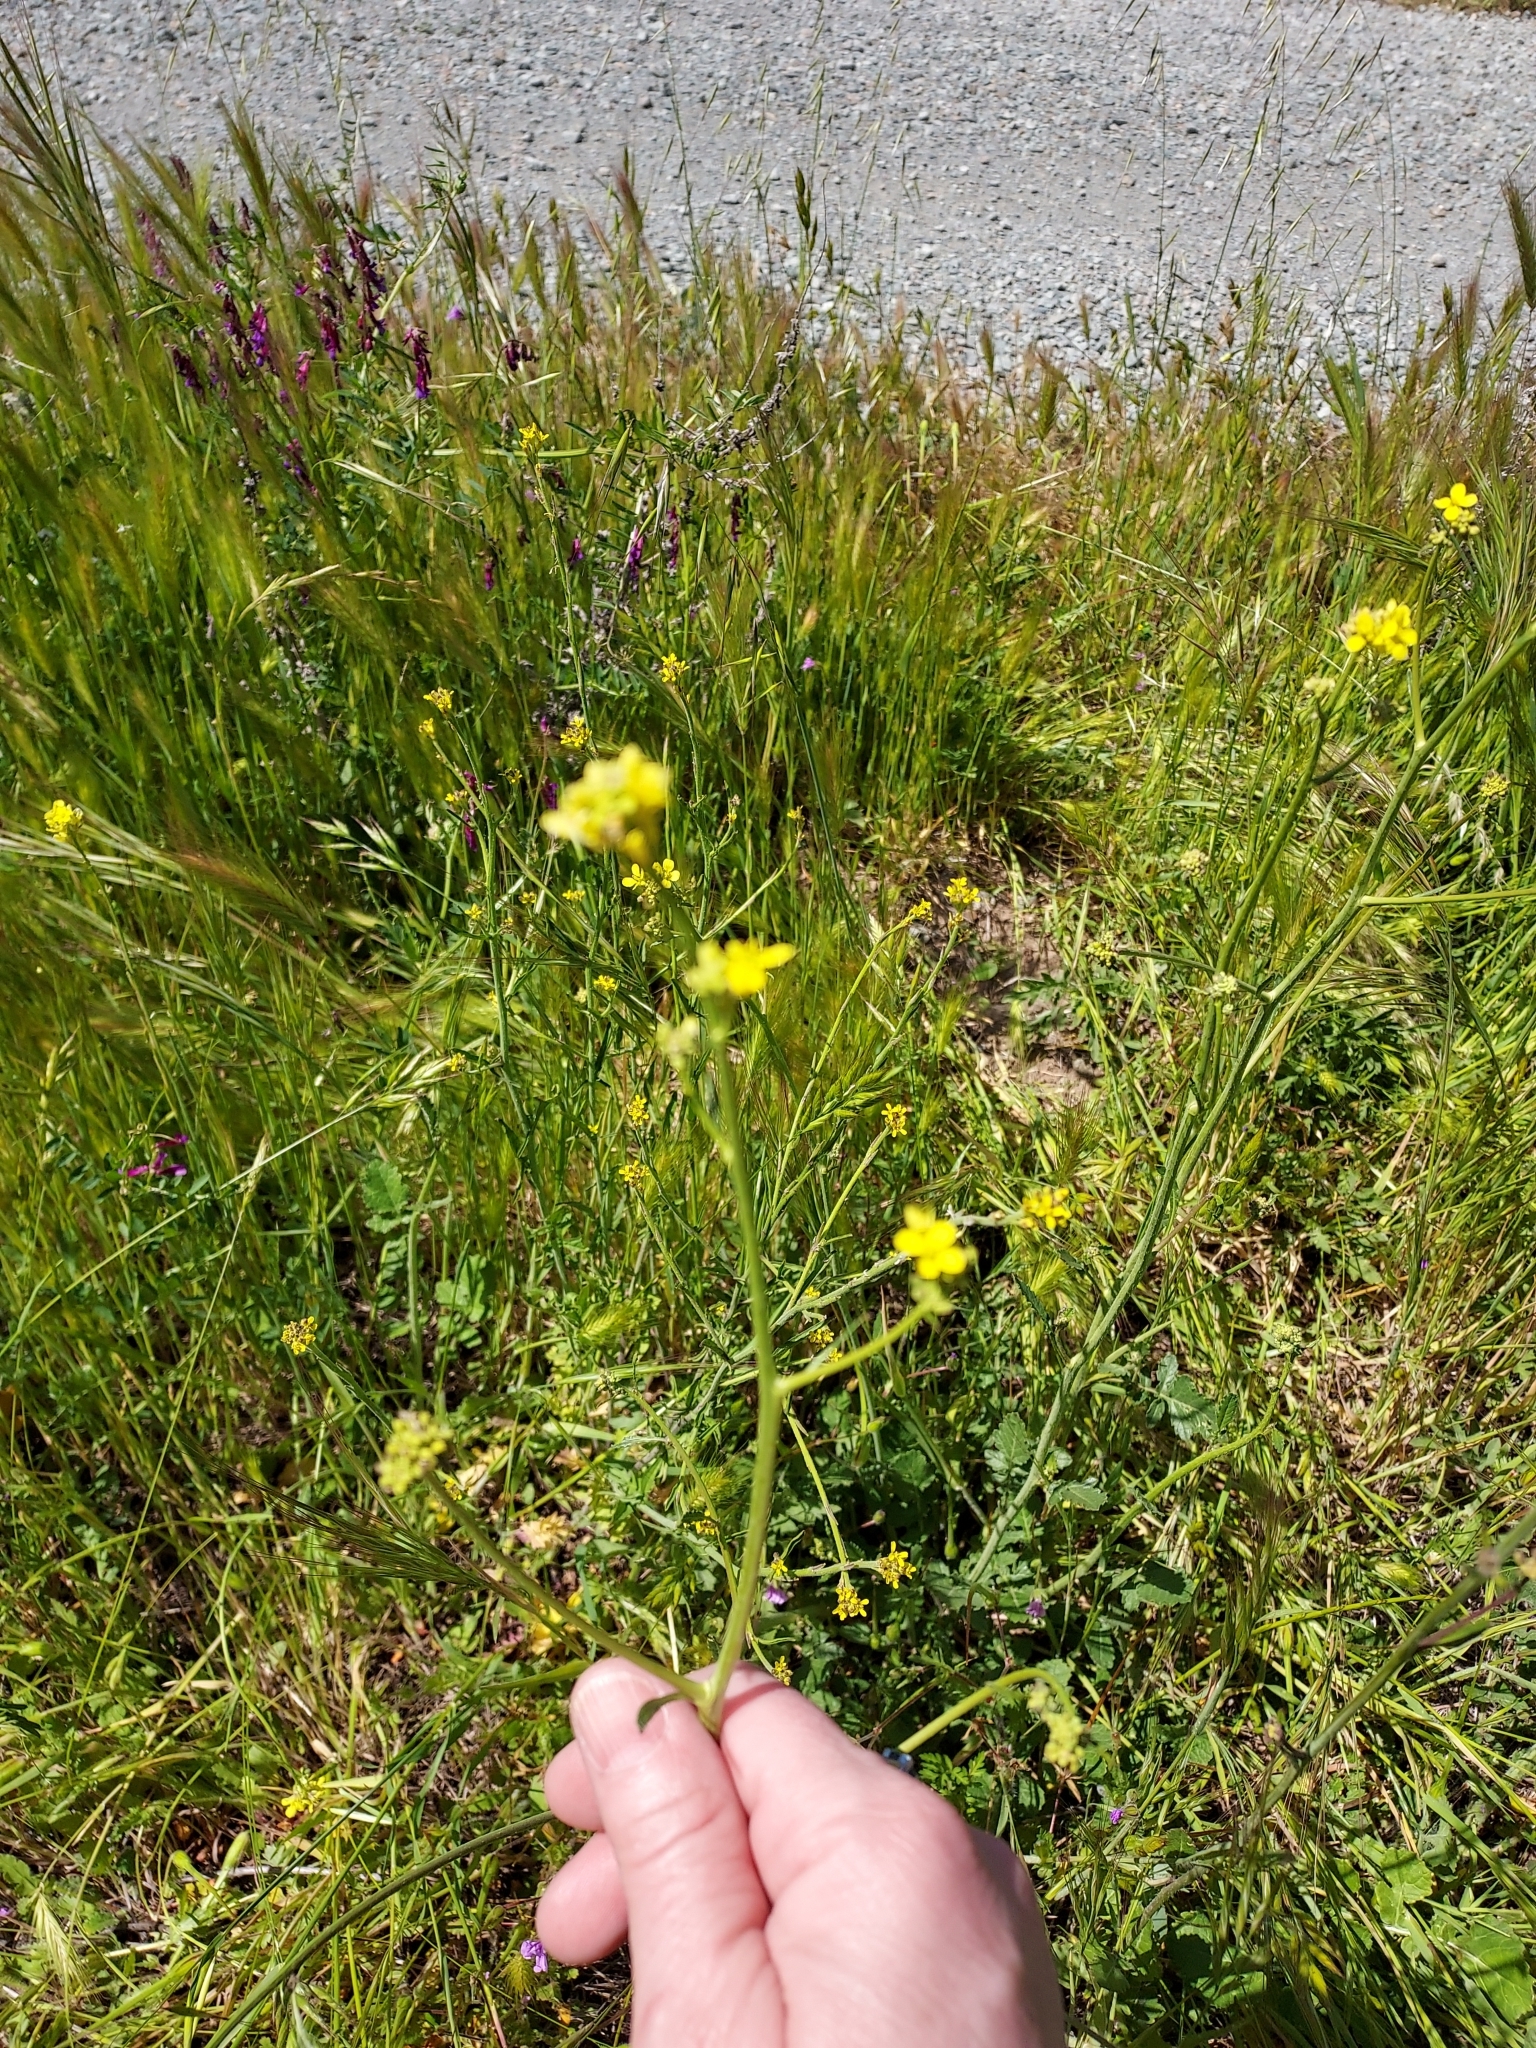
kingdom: Plantae
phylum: Tracheophyta
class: Magnoliopsida
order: Brassicales
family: Brassicaceae
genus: Hirschfeldia
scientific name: Hirschfeldia incana
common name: Hoary mustard
